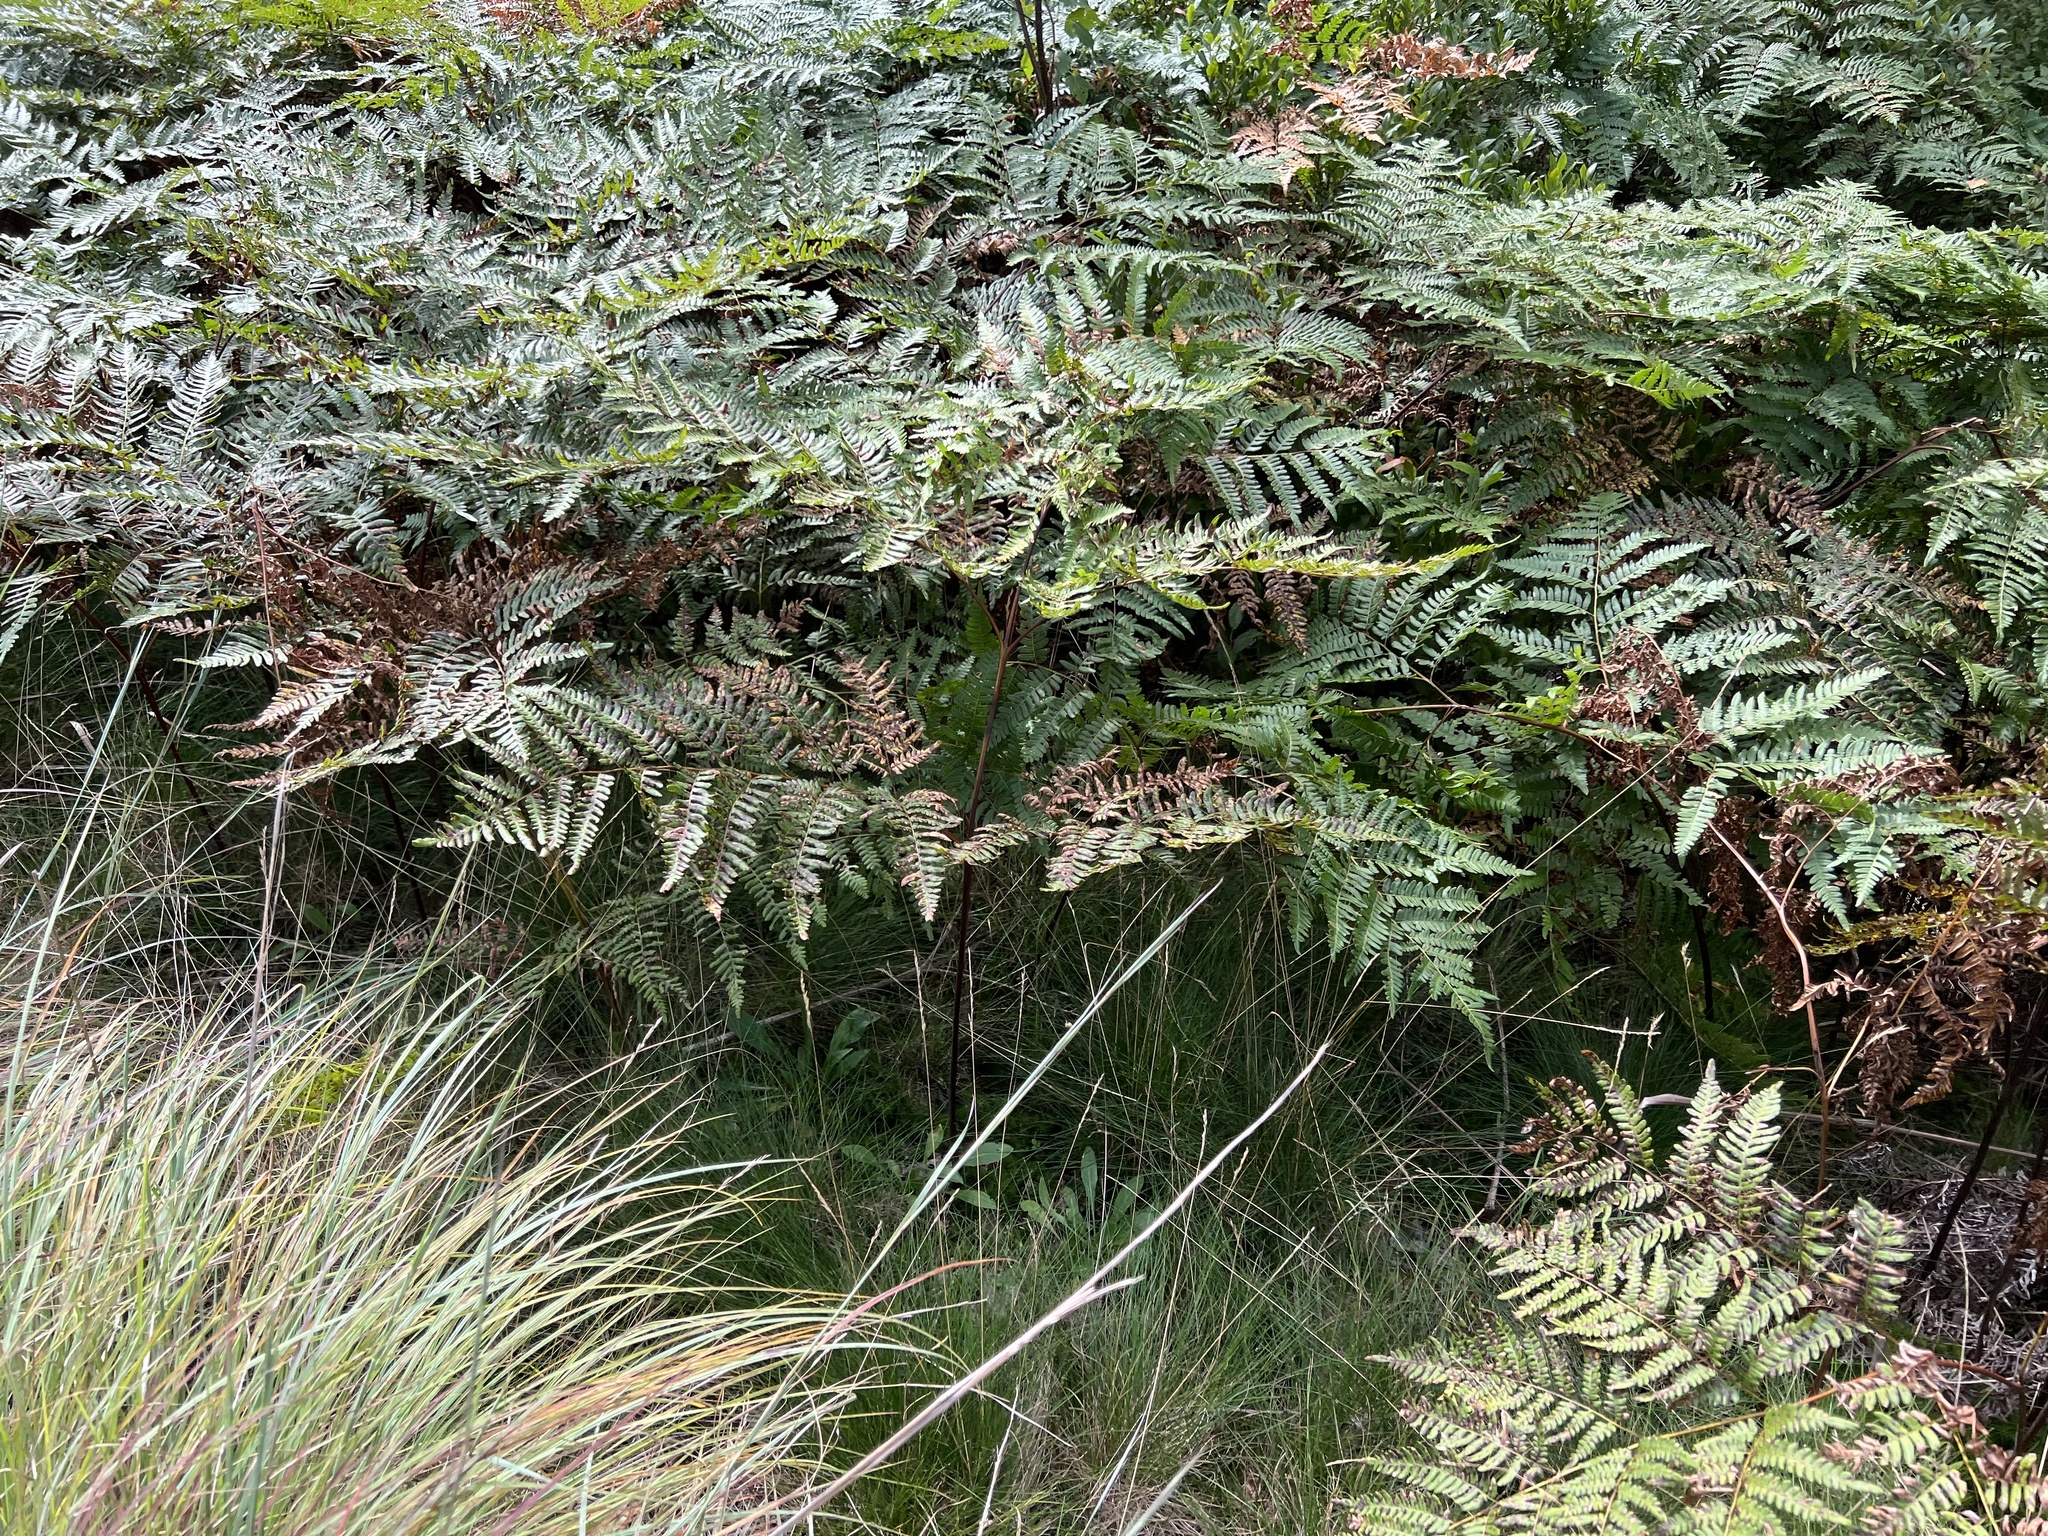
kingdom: Plantae
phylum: Tracheophyta
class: Polypodiopsida
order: Polypodiales
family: Dennstaedtiaceae
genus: Pteridium
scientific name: Pteridium aquilinum
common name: Bracken
